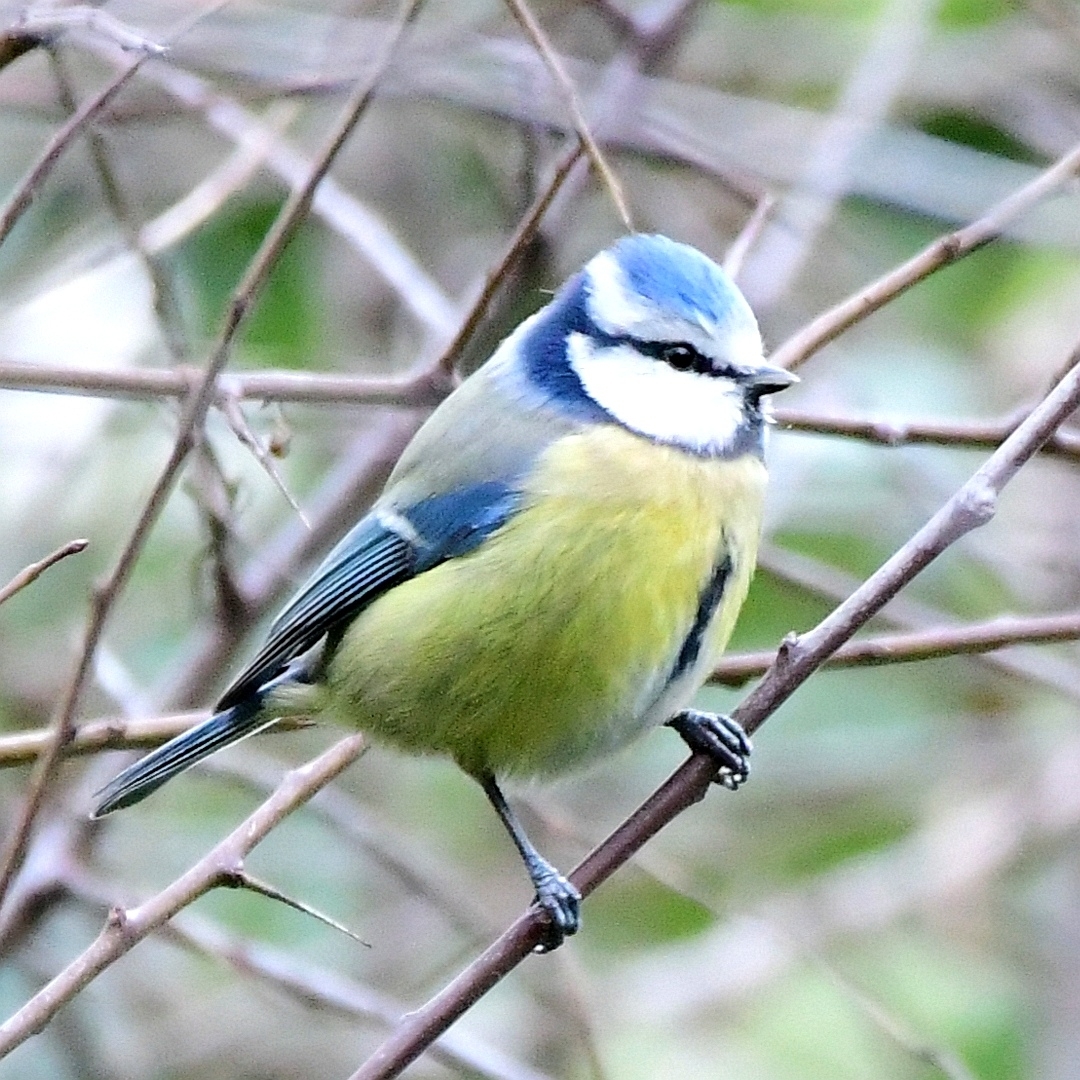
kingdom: Animalia
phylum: Chordata
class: Aves
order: Passeriformes
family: Paridae
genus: Cyanistes
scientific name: Cyanistes caeruleus
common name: Eurasian blue tit
